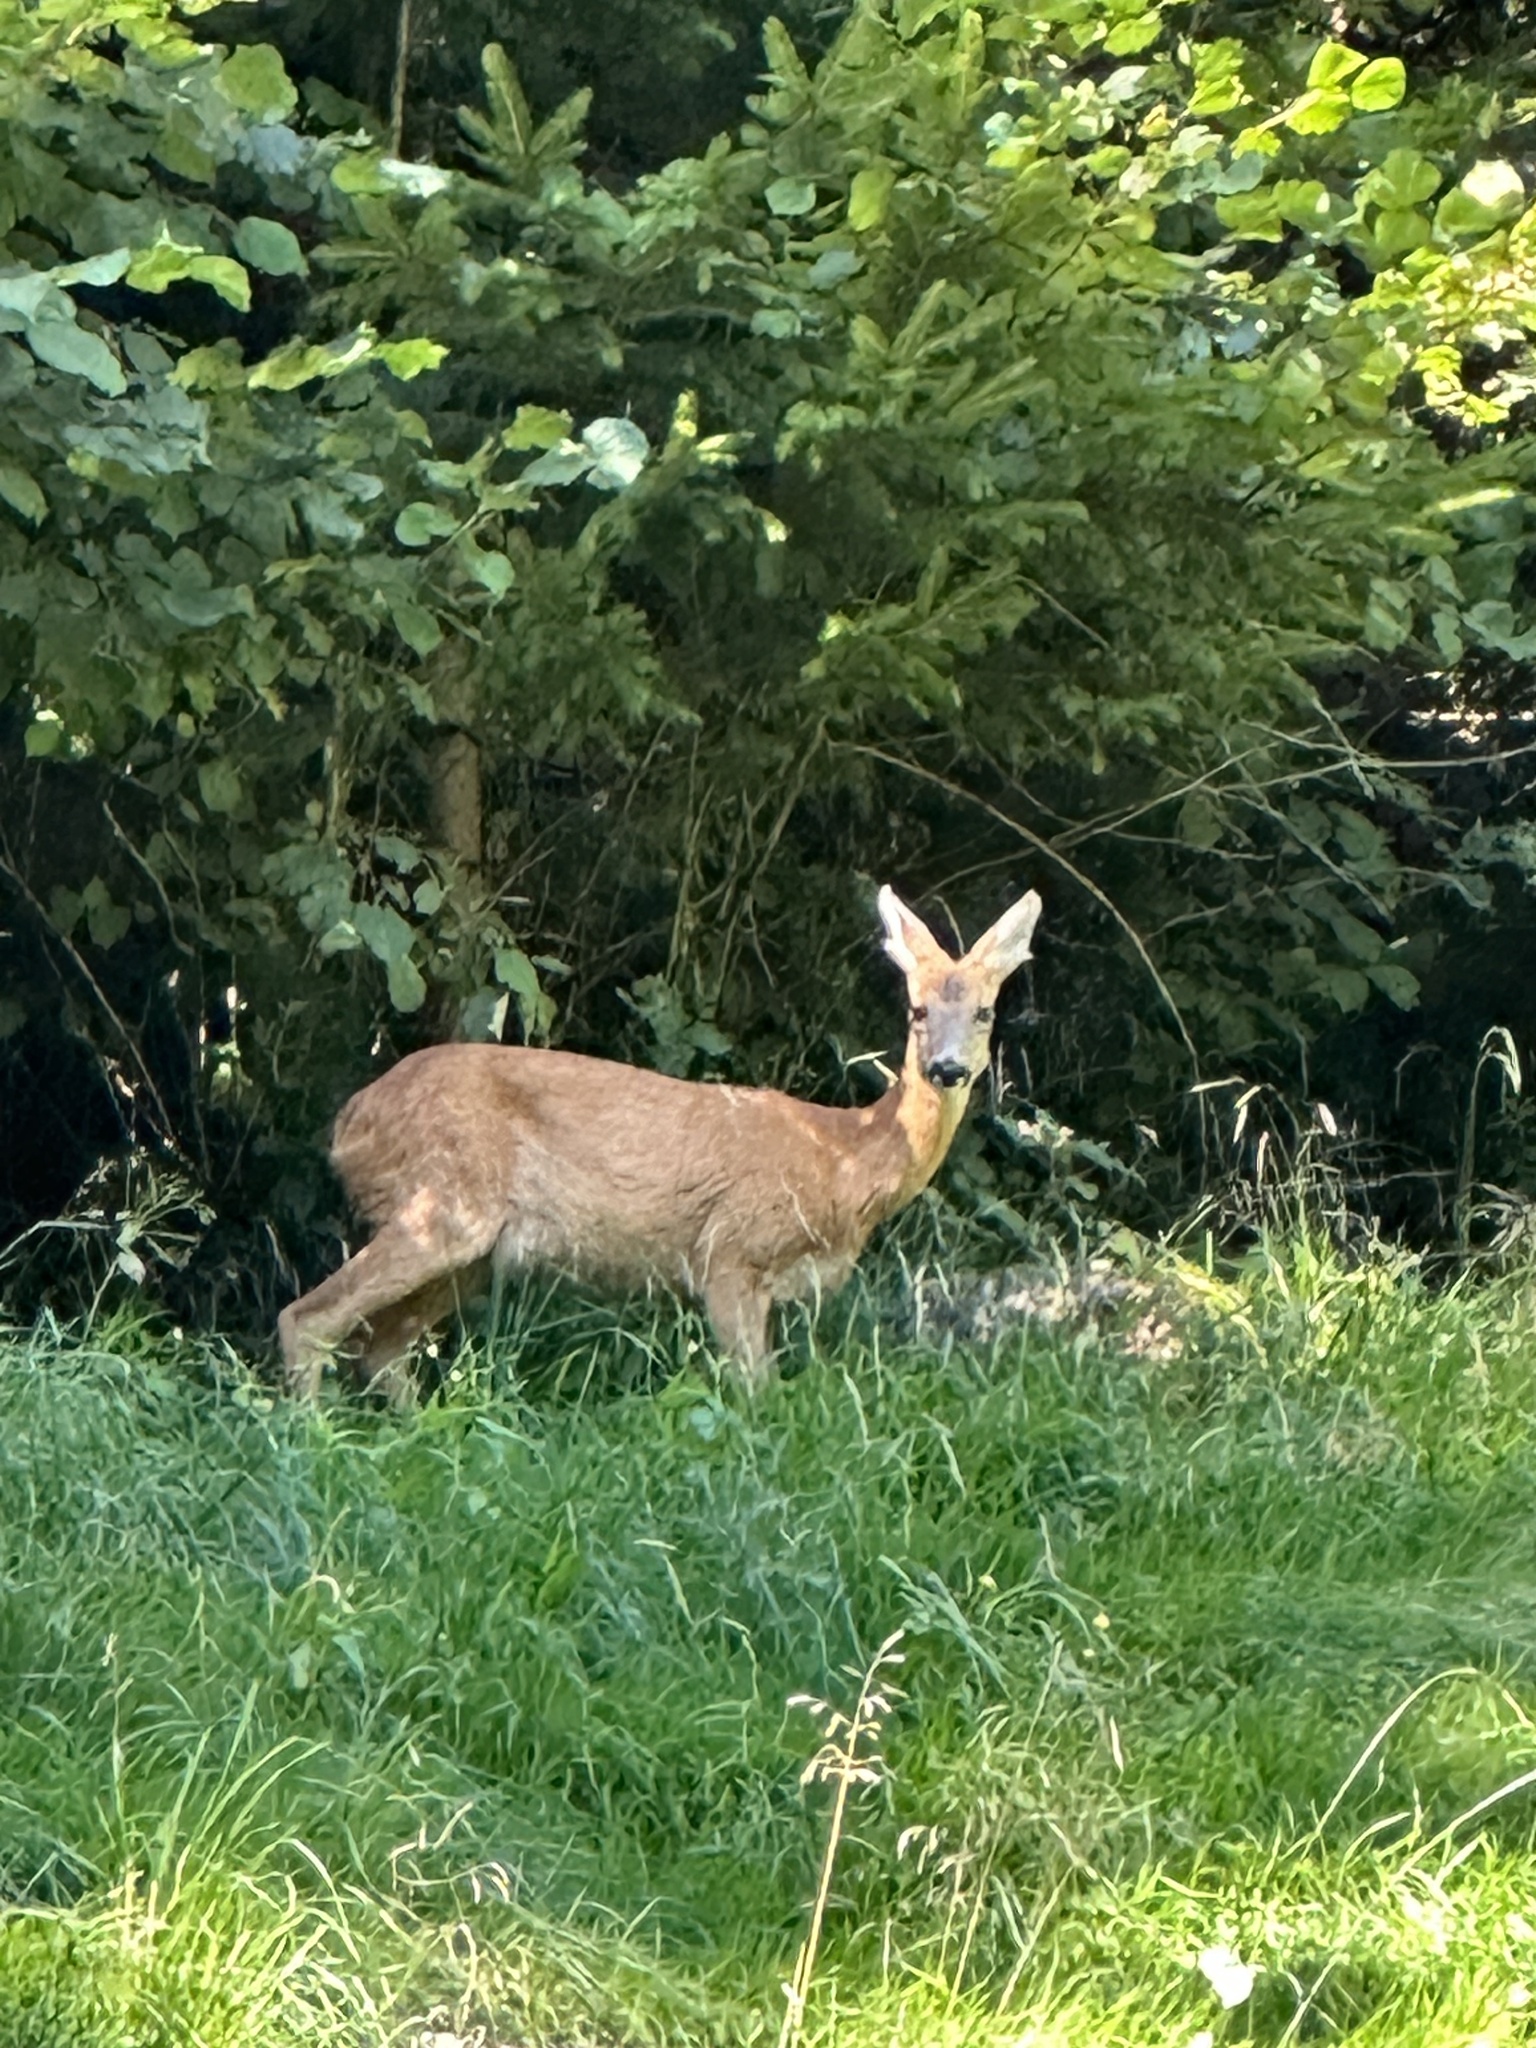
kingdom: Animalia
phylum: Chordata
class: Mammalia
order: Artiodactyla
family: Cervidae
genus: Capreolus
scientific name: Capreolus capreolus
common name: Western roe deer
